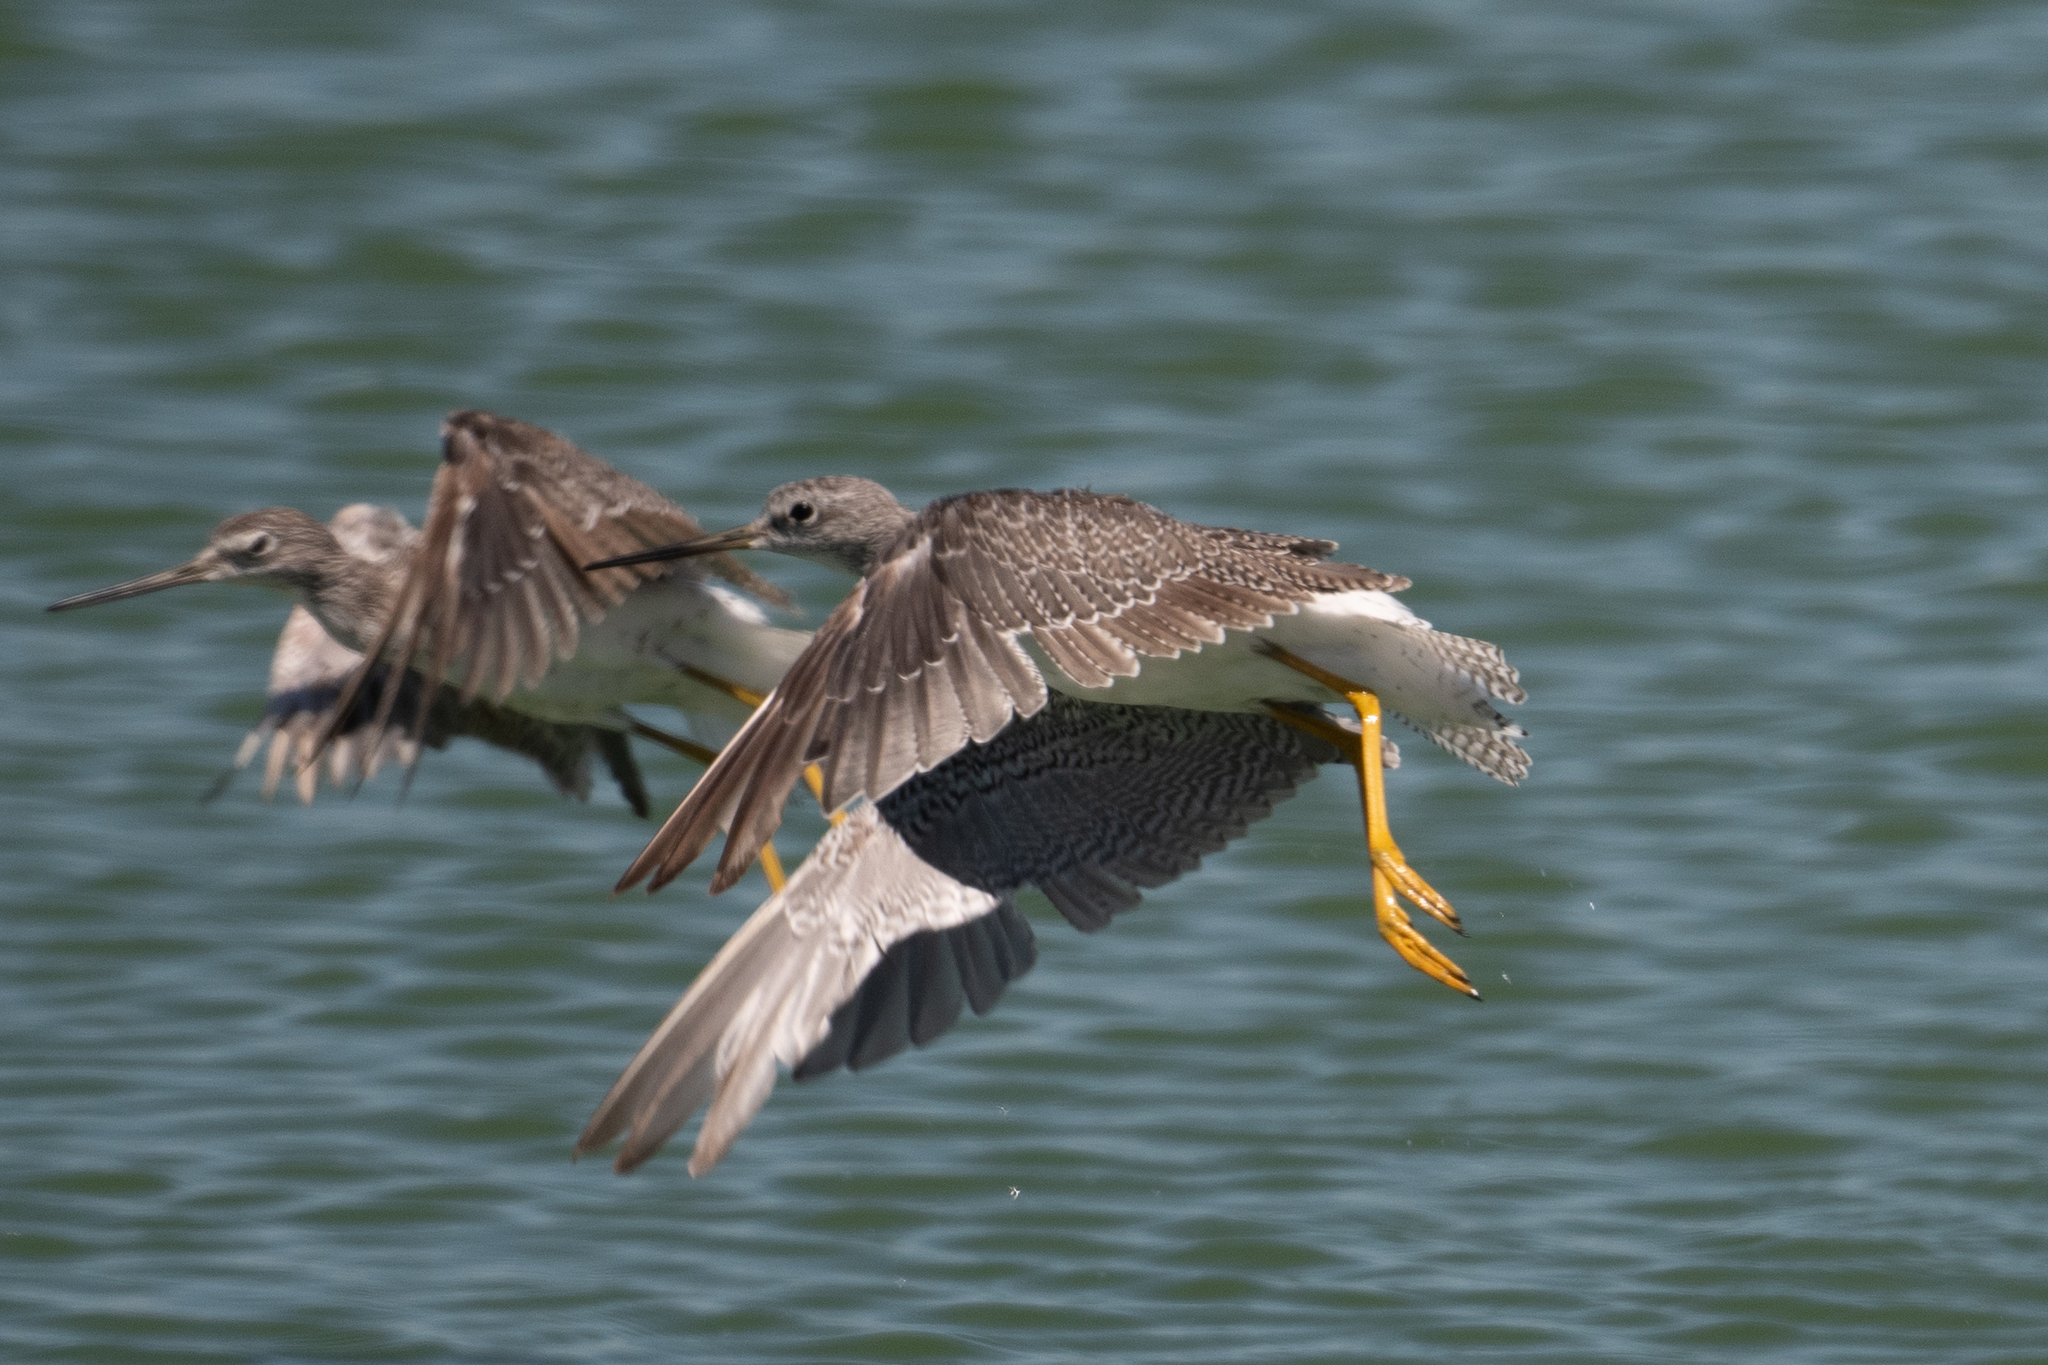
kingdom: Animalia
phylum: Chordata
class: Aves
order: Charadriiformes
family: Scolopacidae
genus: Tringa
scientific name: Tringa melanoleuca
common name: Greater yellowlegs
